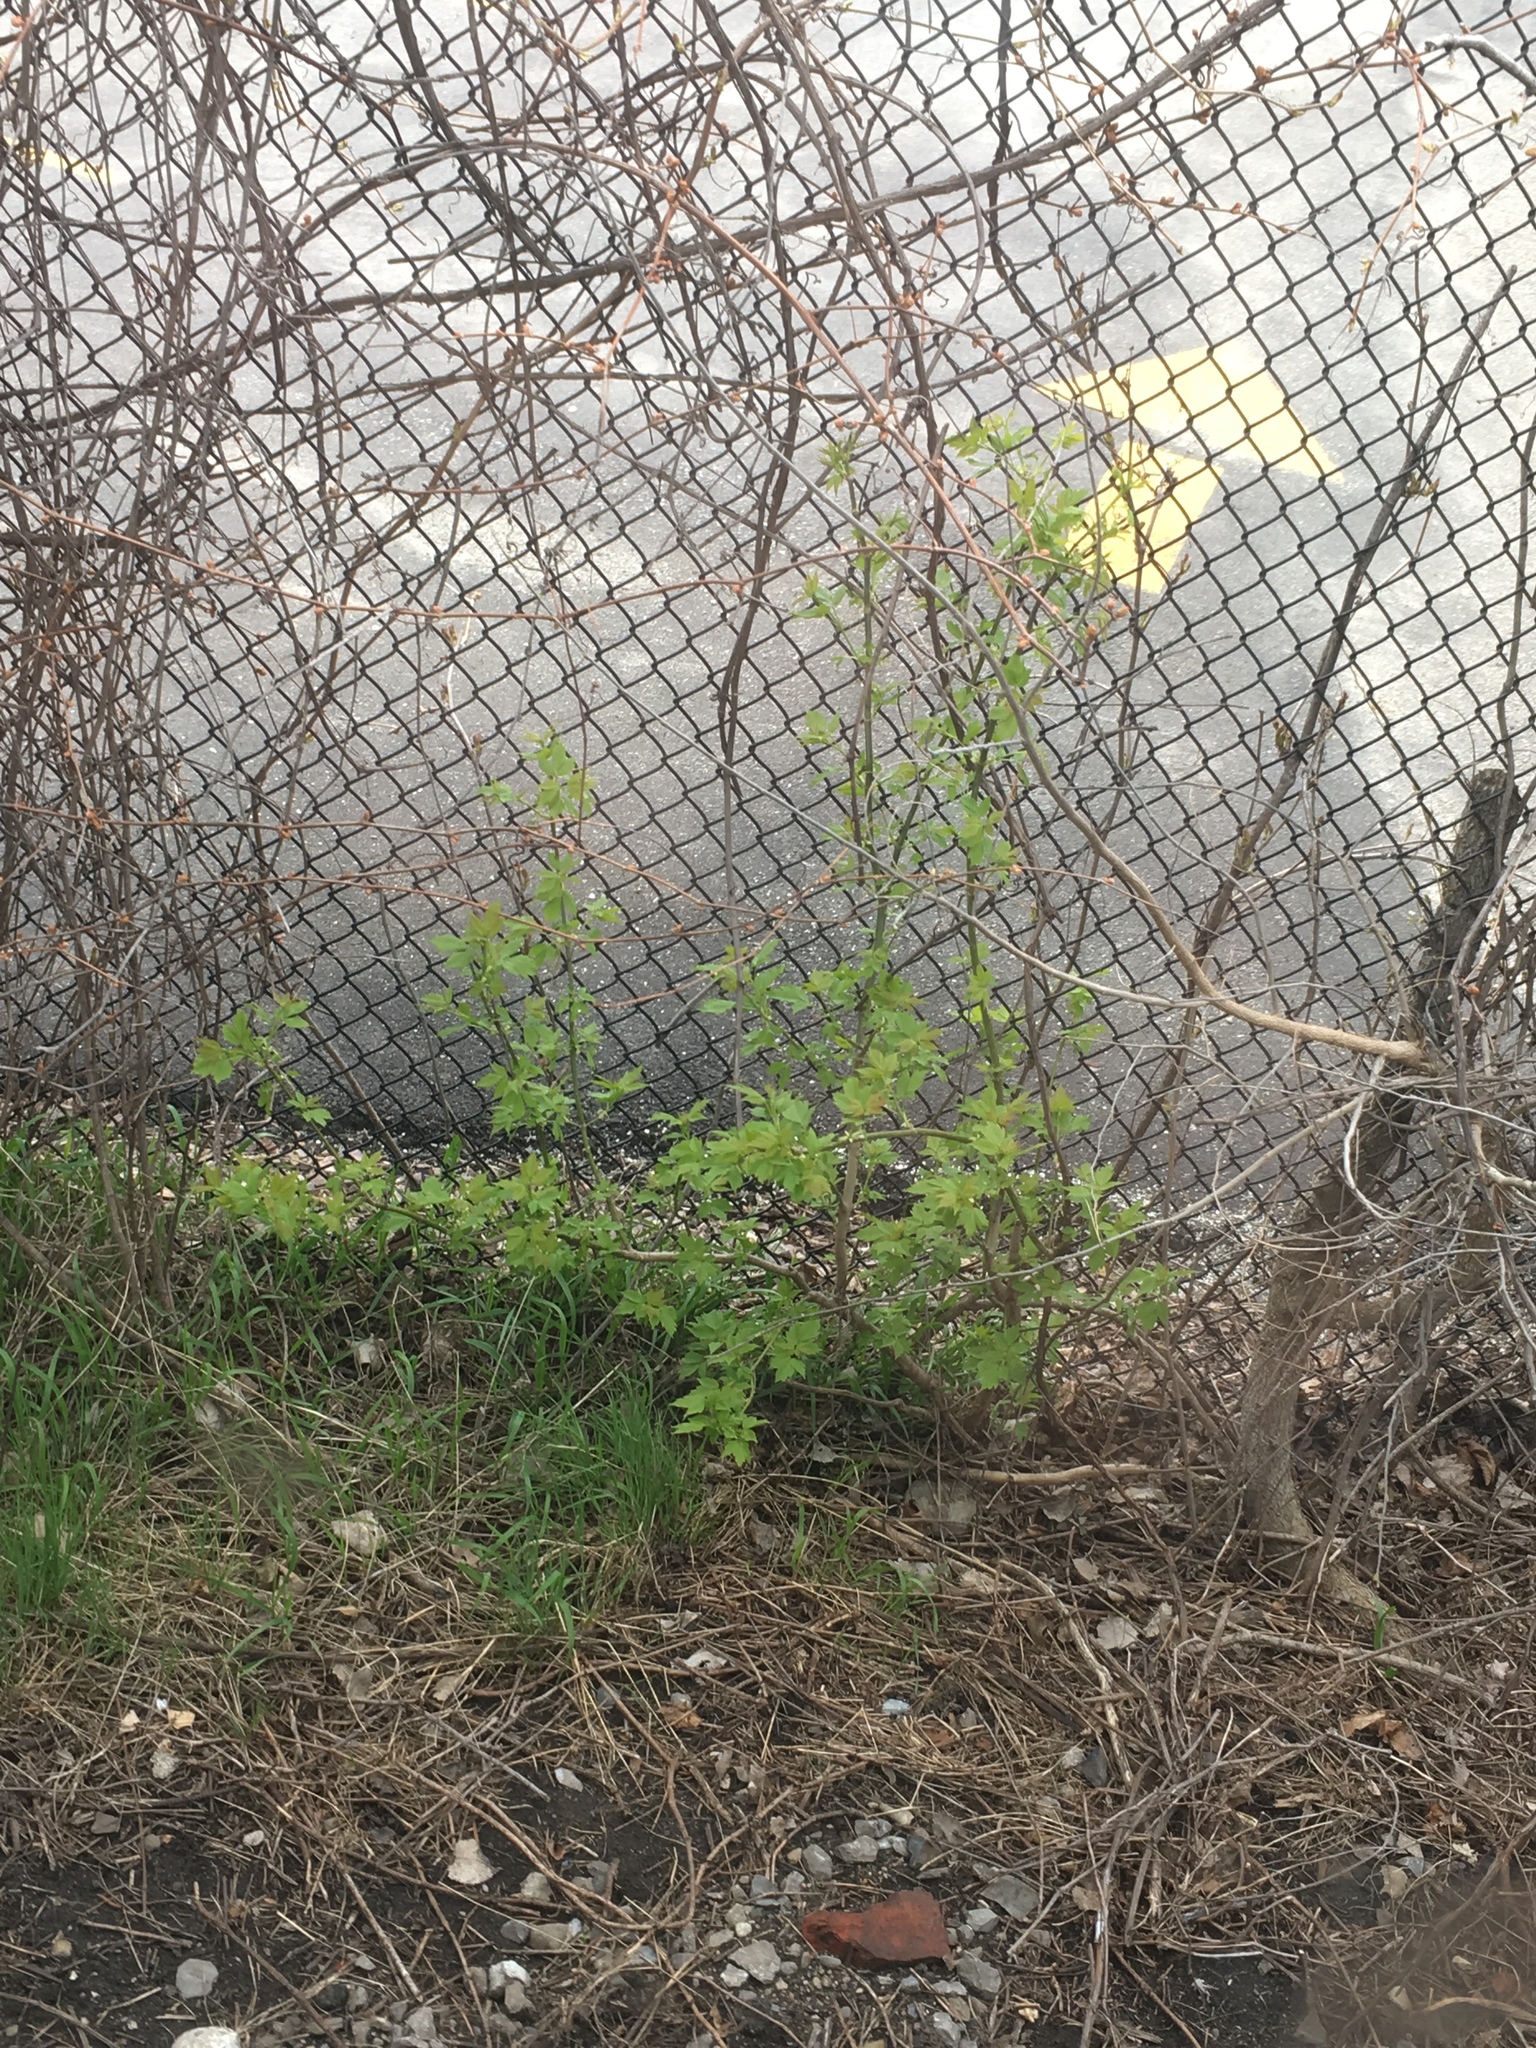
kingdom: Plantae
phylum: Tracheophyta
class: Magnoliopsida
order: Sapindales
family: Sapindaceae
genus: Acer
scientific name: Acer negundo
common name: Ashleaf maple
